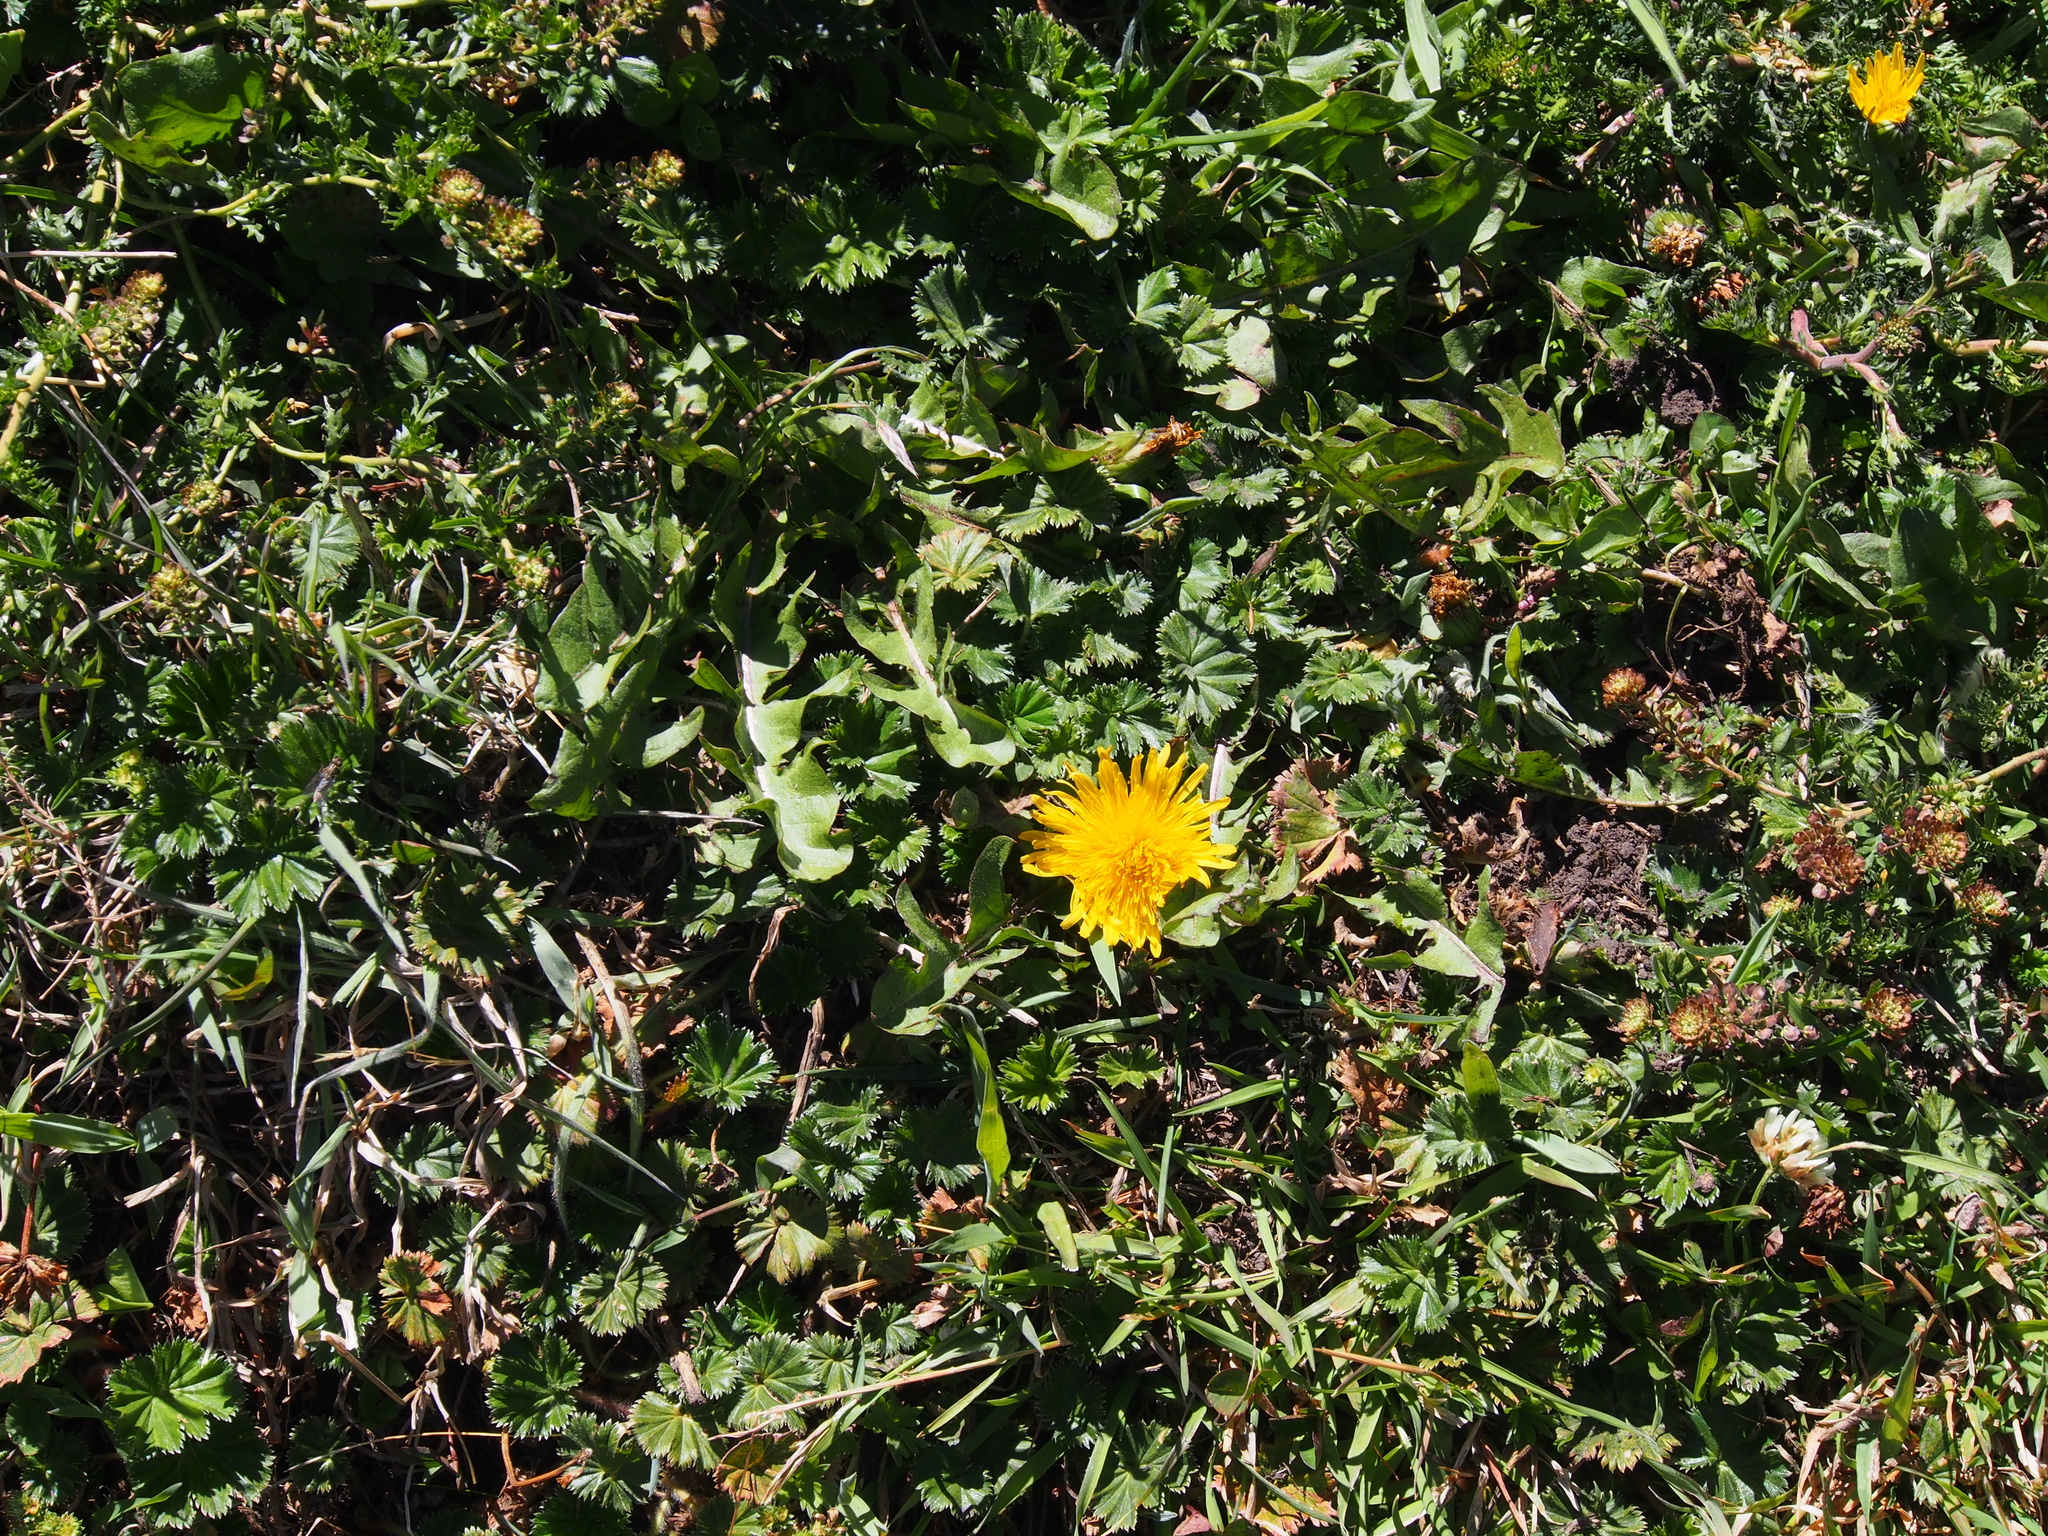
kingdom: Plantae
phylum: Tracheophyta
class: Magnoliopsida
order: Asterales
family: Asteraceae
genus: Taraxacum
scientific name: Taraxacum officinale
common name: Common dandelion
